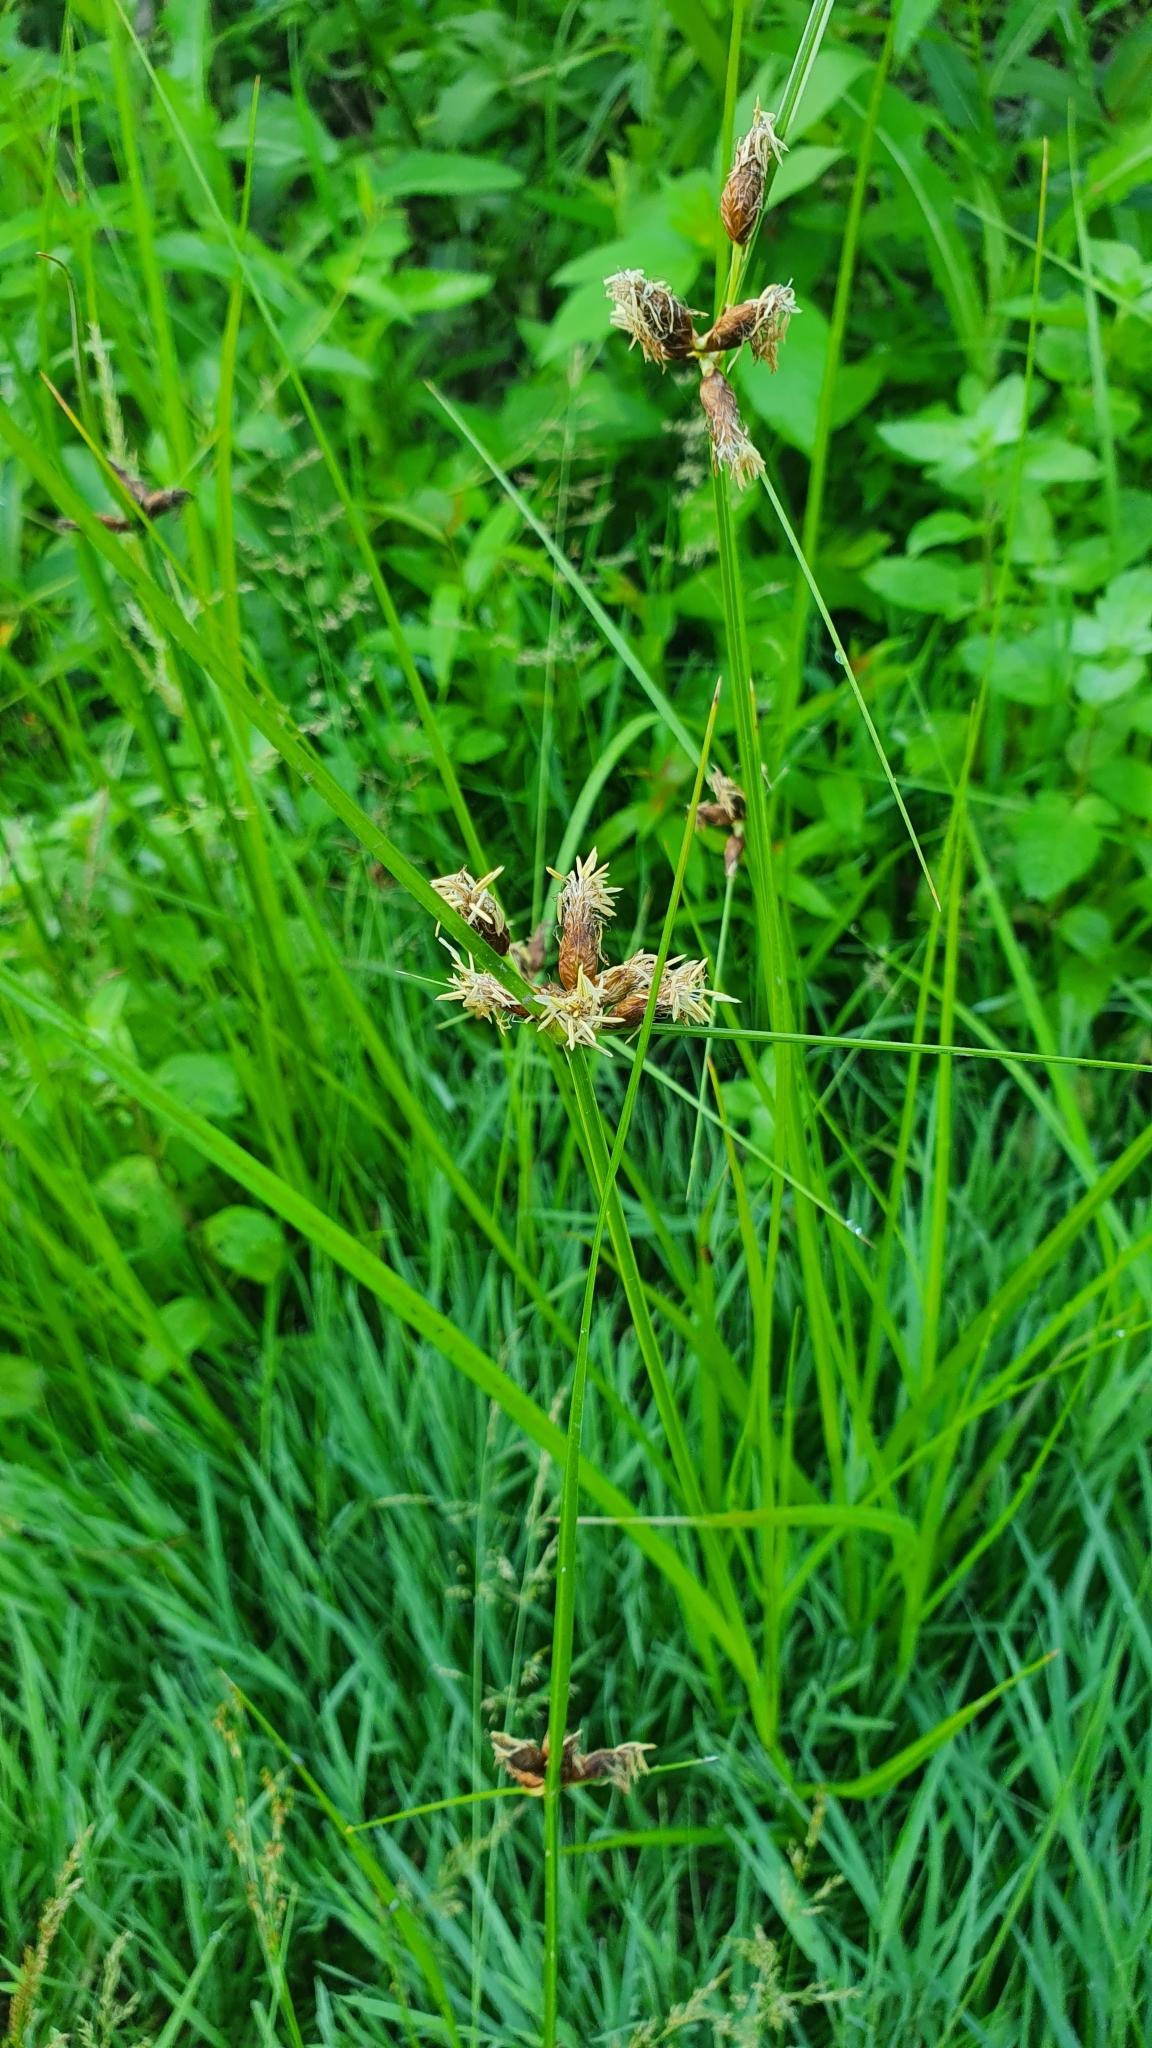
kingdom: Plantae
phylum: Tracheophyta
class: Liliopsida
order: Poales
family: Cyperaceae
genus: Bolboschoenus
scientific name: Bolboschoenus maritimus
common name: Sea club-rush
